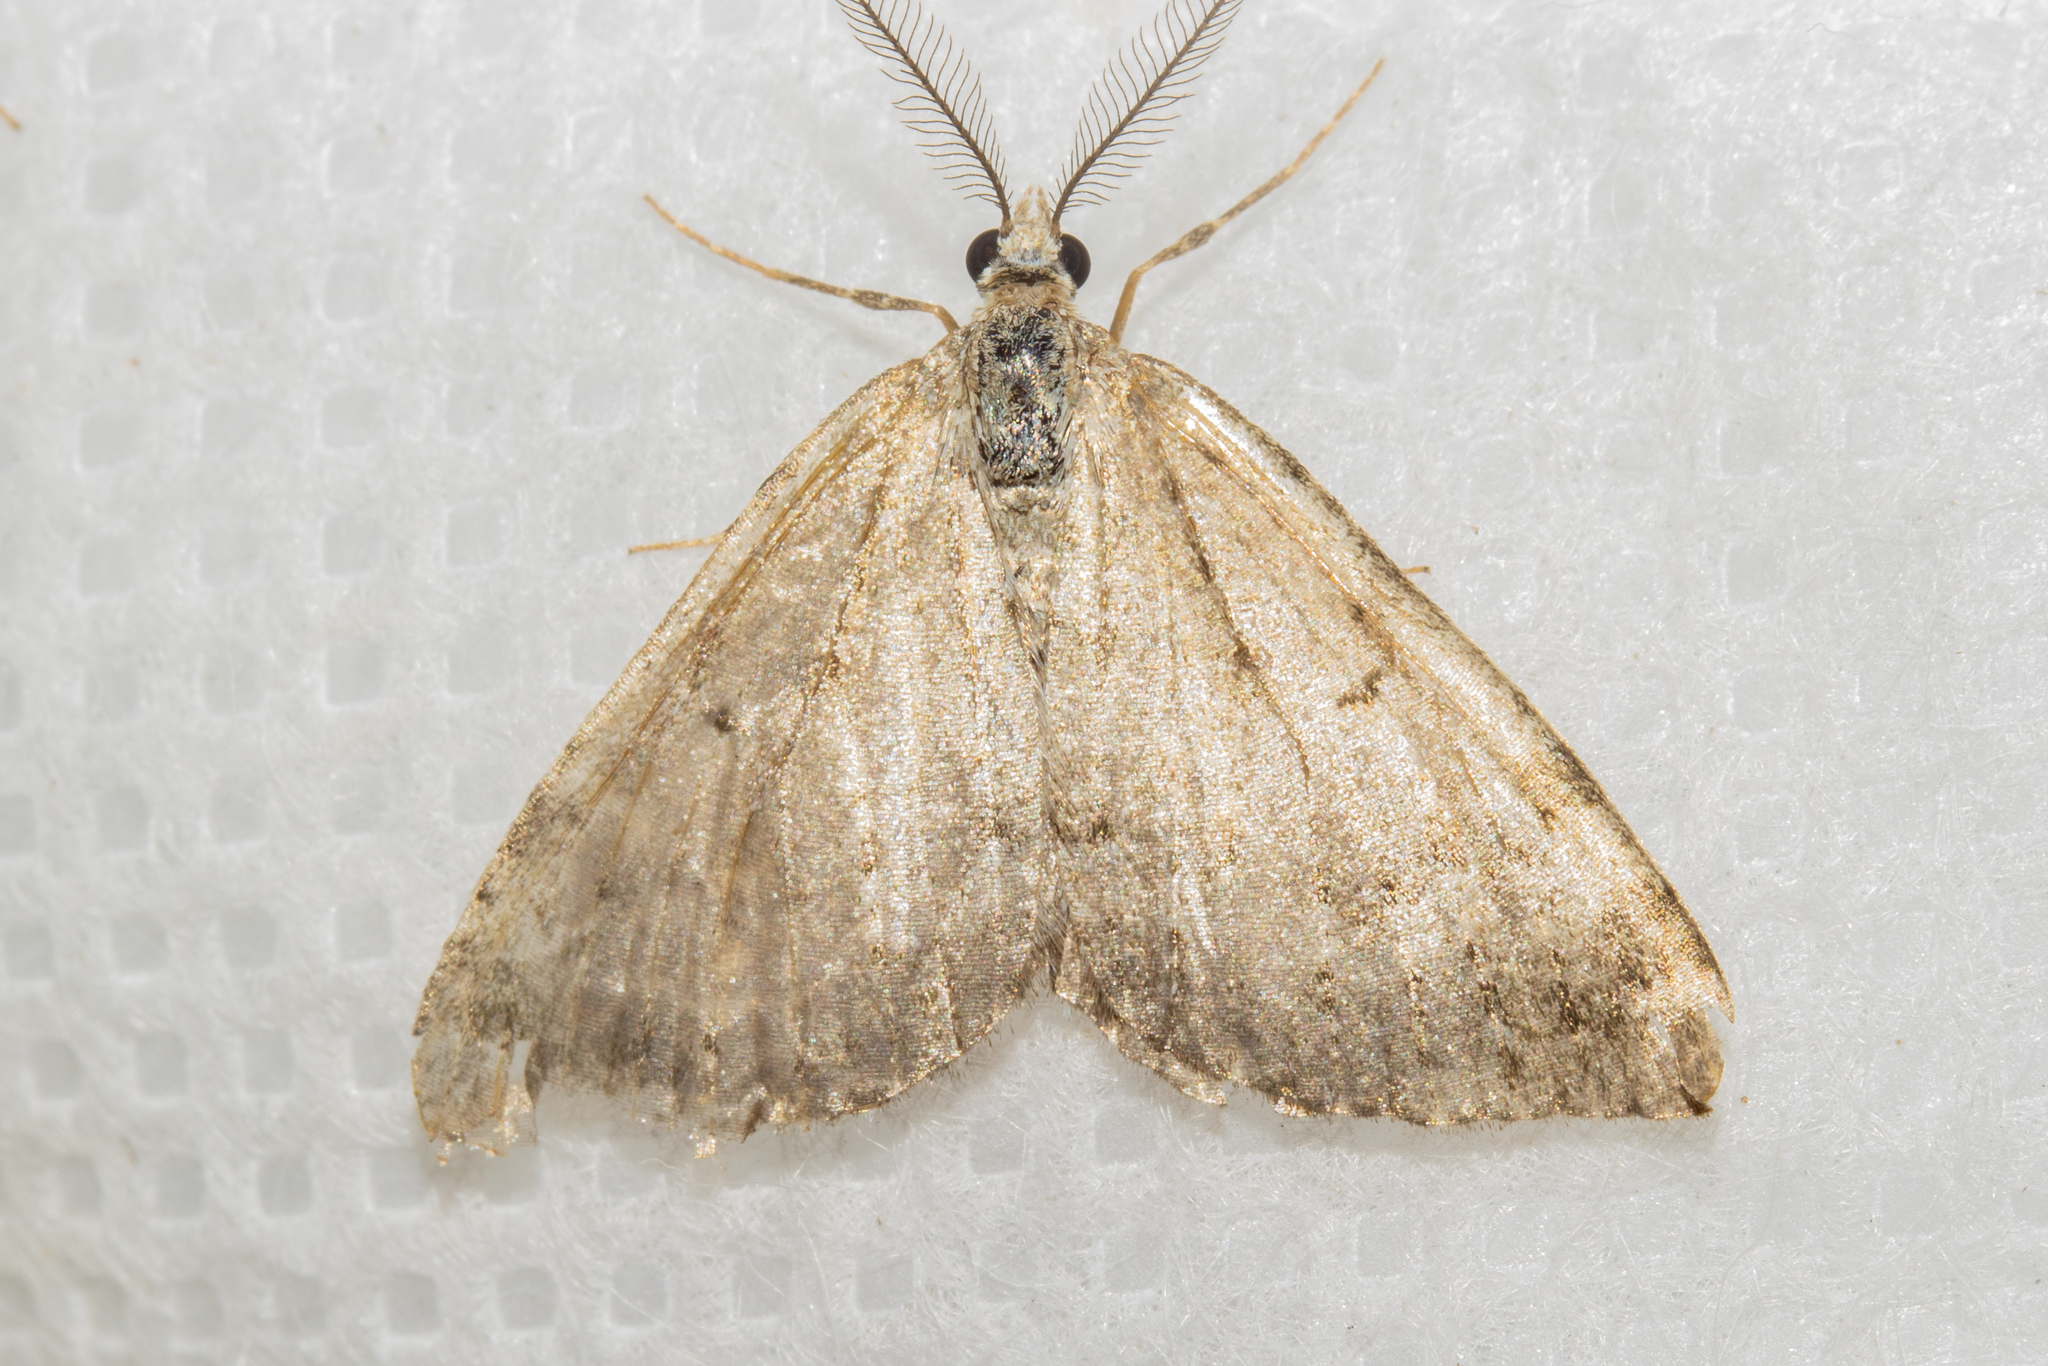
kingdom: Animalia
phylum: Arthropoda
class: Insecta
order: Lepidoptera
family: Geometridae
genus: Epyaxa
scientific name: Epyaxa rosearia
